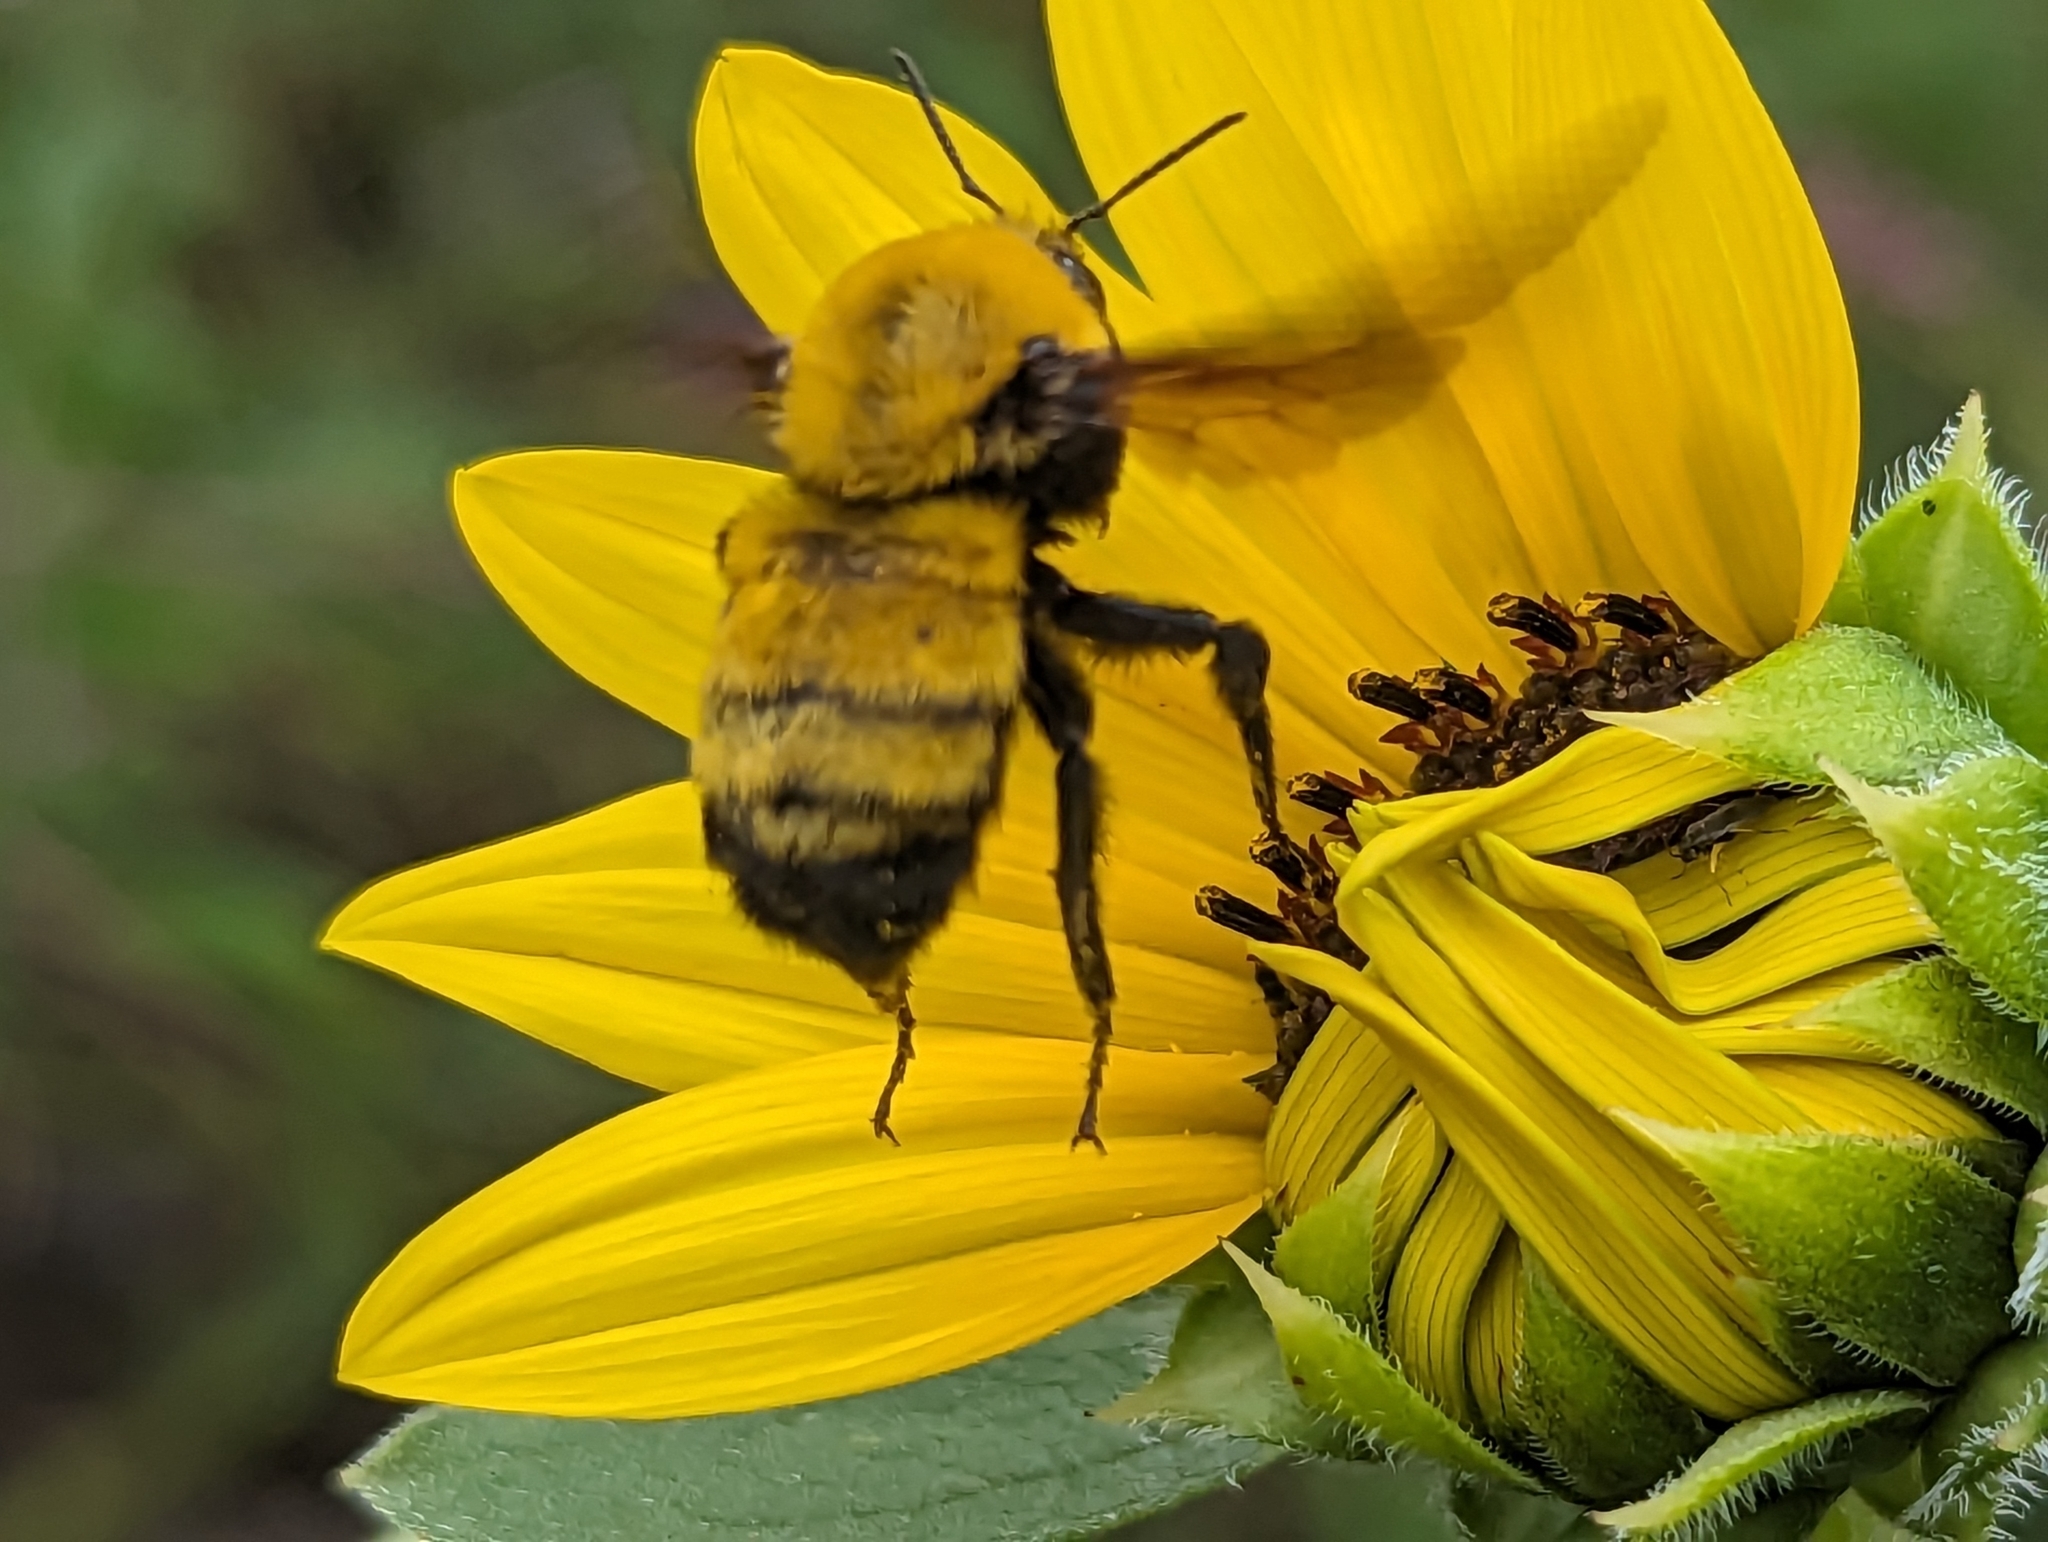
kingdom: Animalia
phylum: Arthropoda
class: Insecta
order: Hymenoptera
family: Apidae
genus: Bombus
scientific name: Bombus morrisoni
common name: Morrison bumble bee
